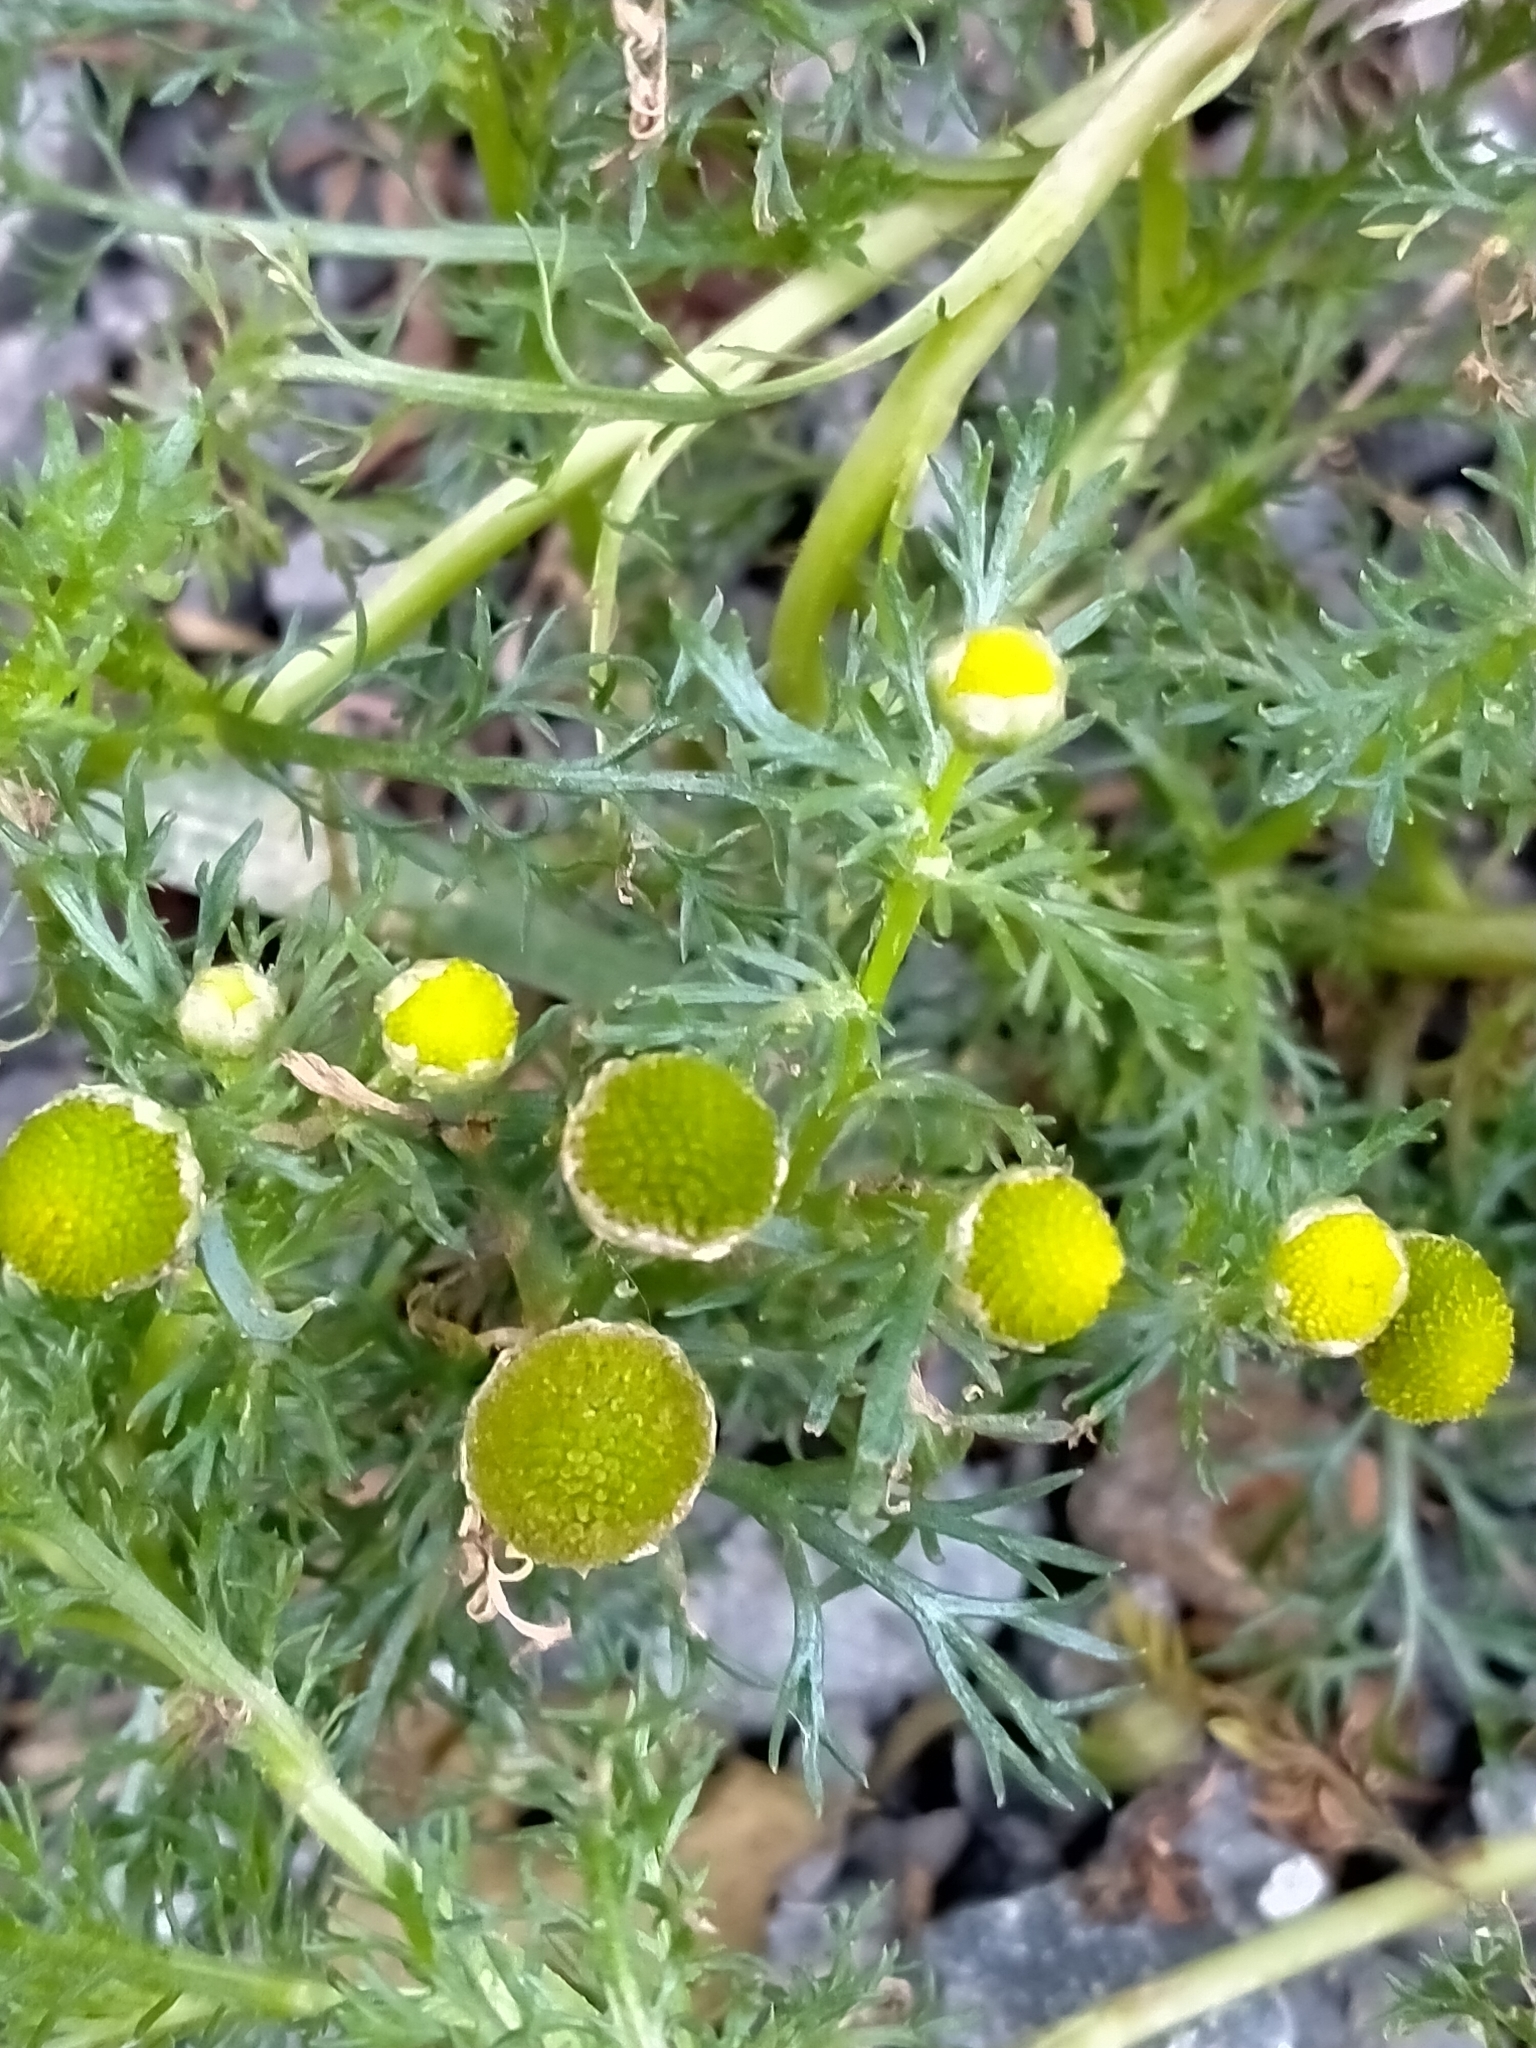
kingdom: Plantae
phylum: Tracheophyta
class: Magnoliopsida
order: Asterales
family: Asteraceae
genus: Matricaria
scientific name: Matricaria discoidea
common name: Disc mayweed
